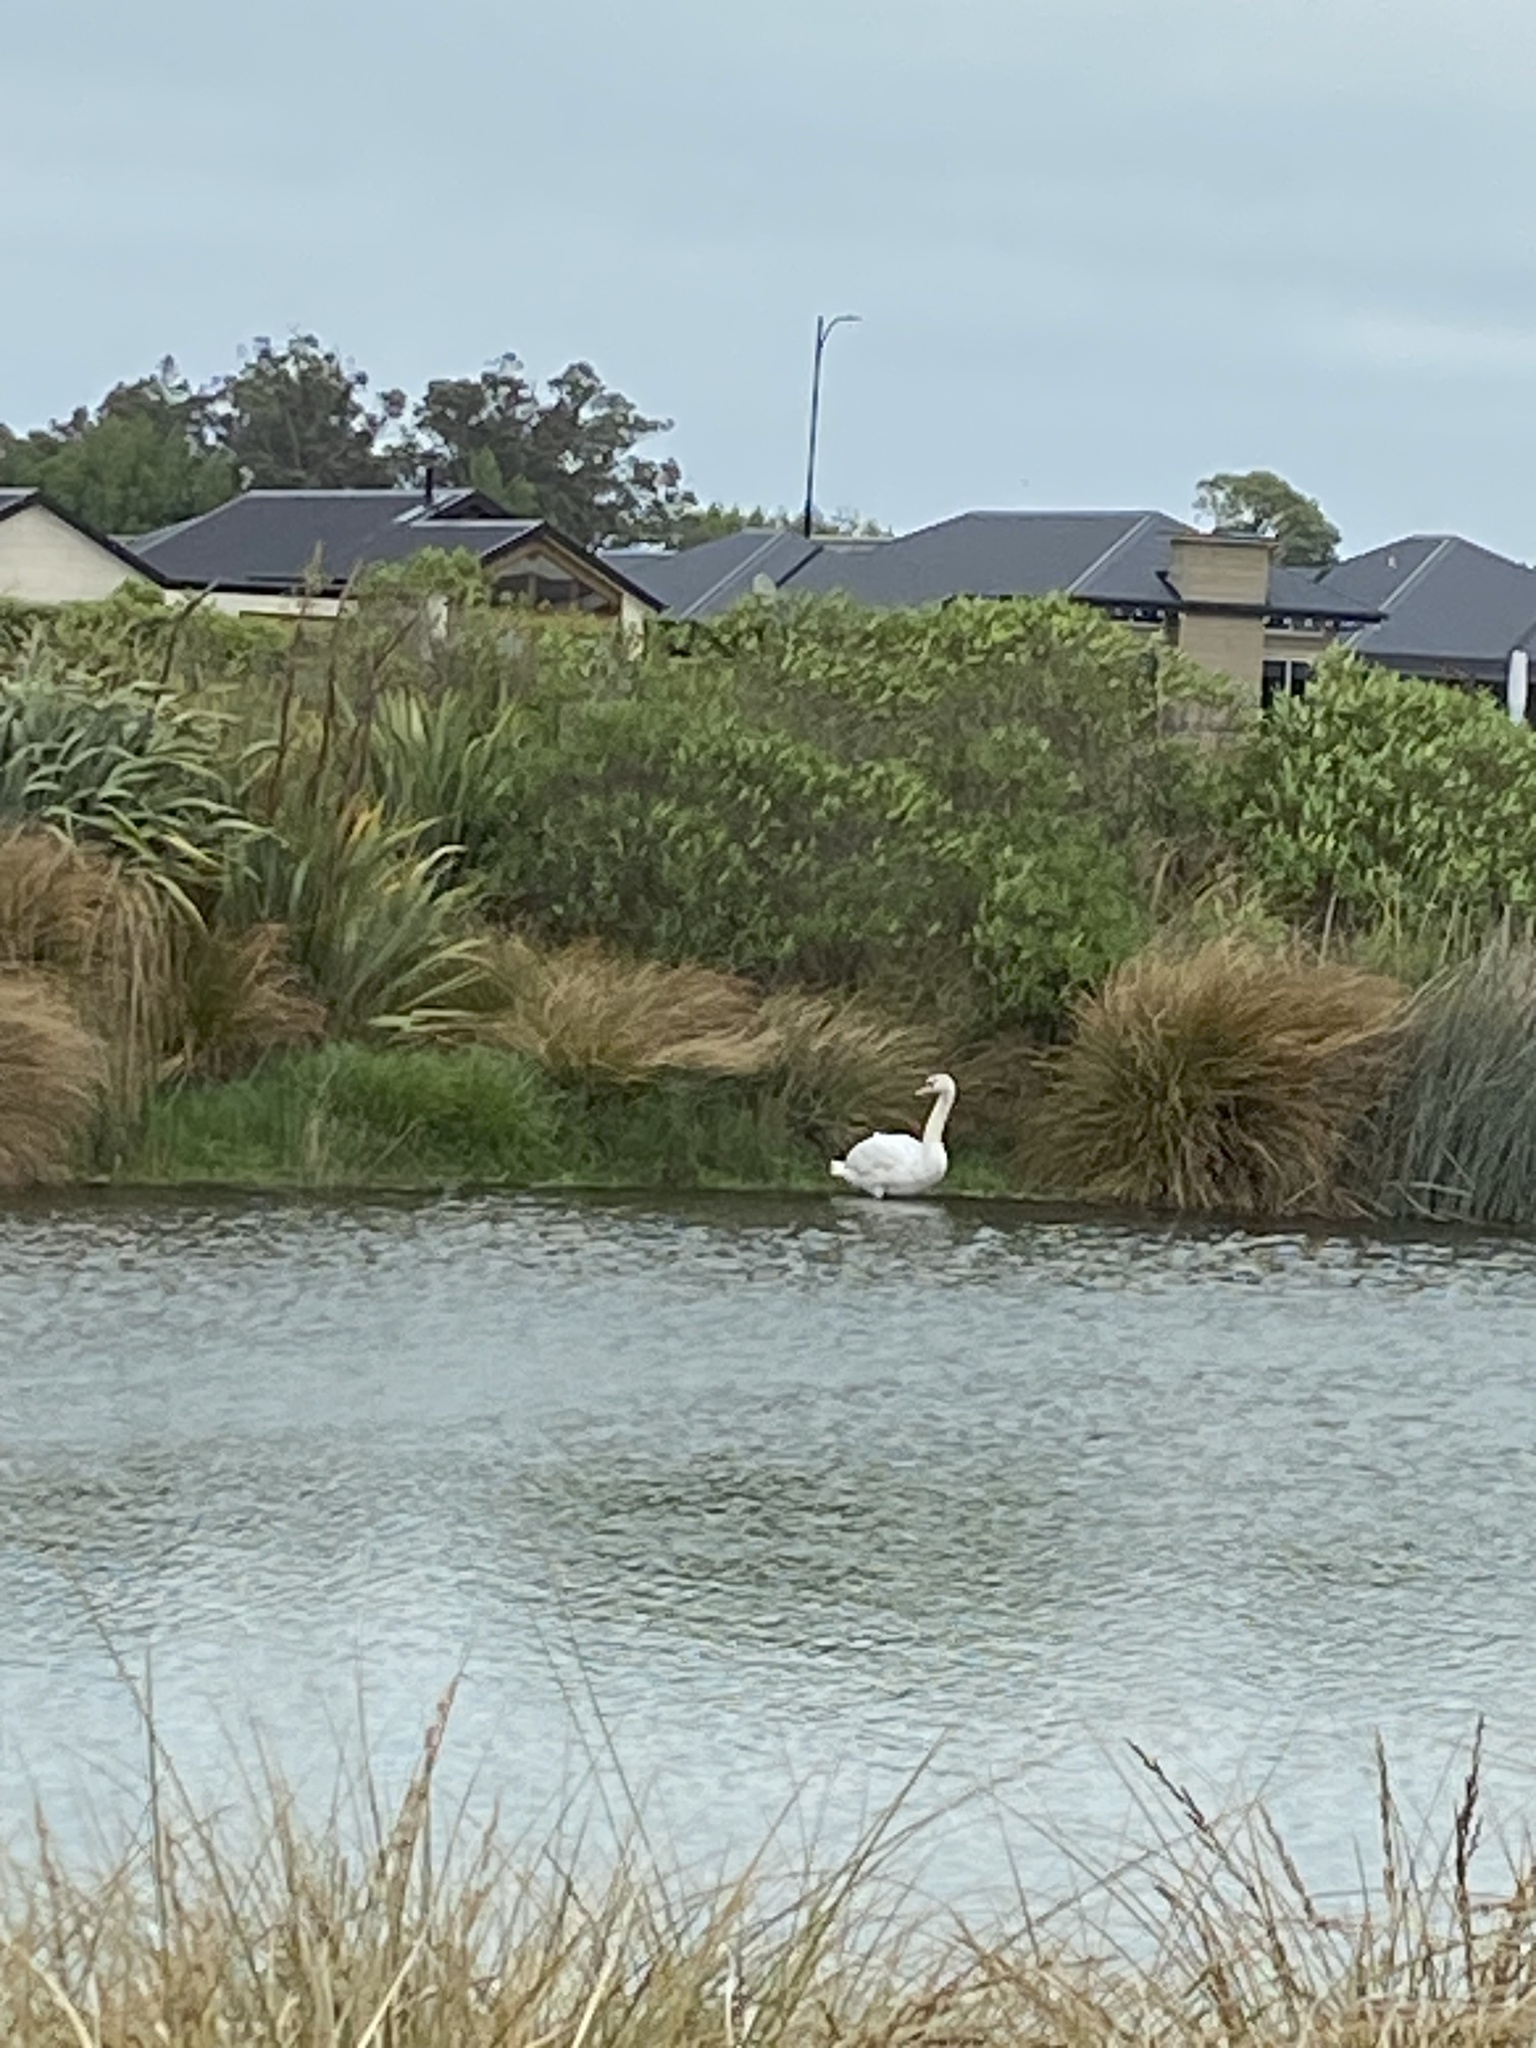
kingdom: Animalia
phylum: Chordata
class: Aves
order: Anseriformes
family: Anatidae
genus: Cygnus
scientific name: Cygnus olor
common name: Mute swan
